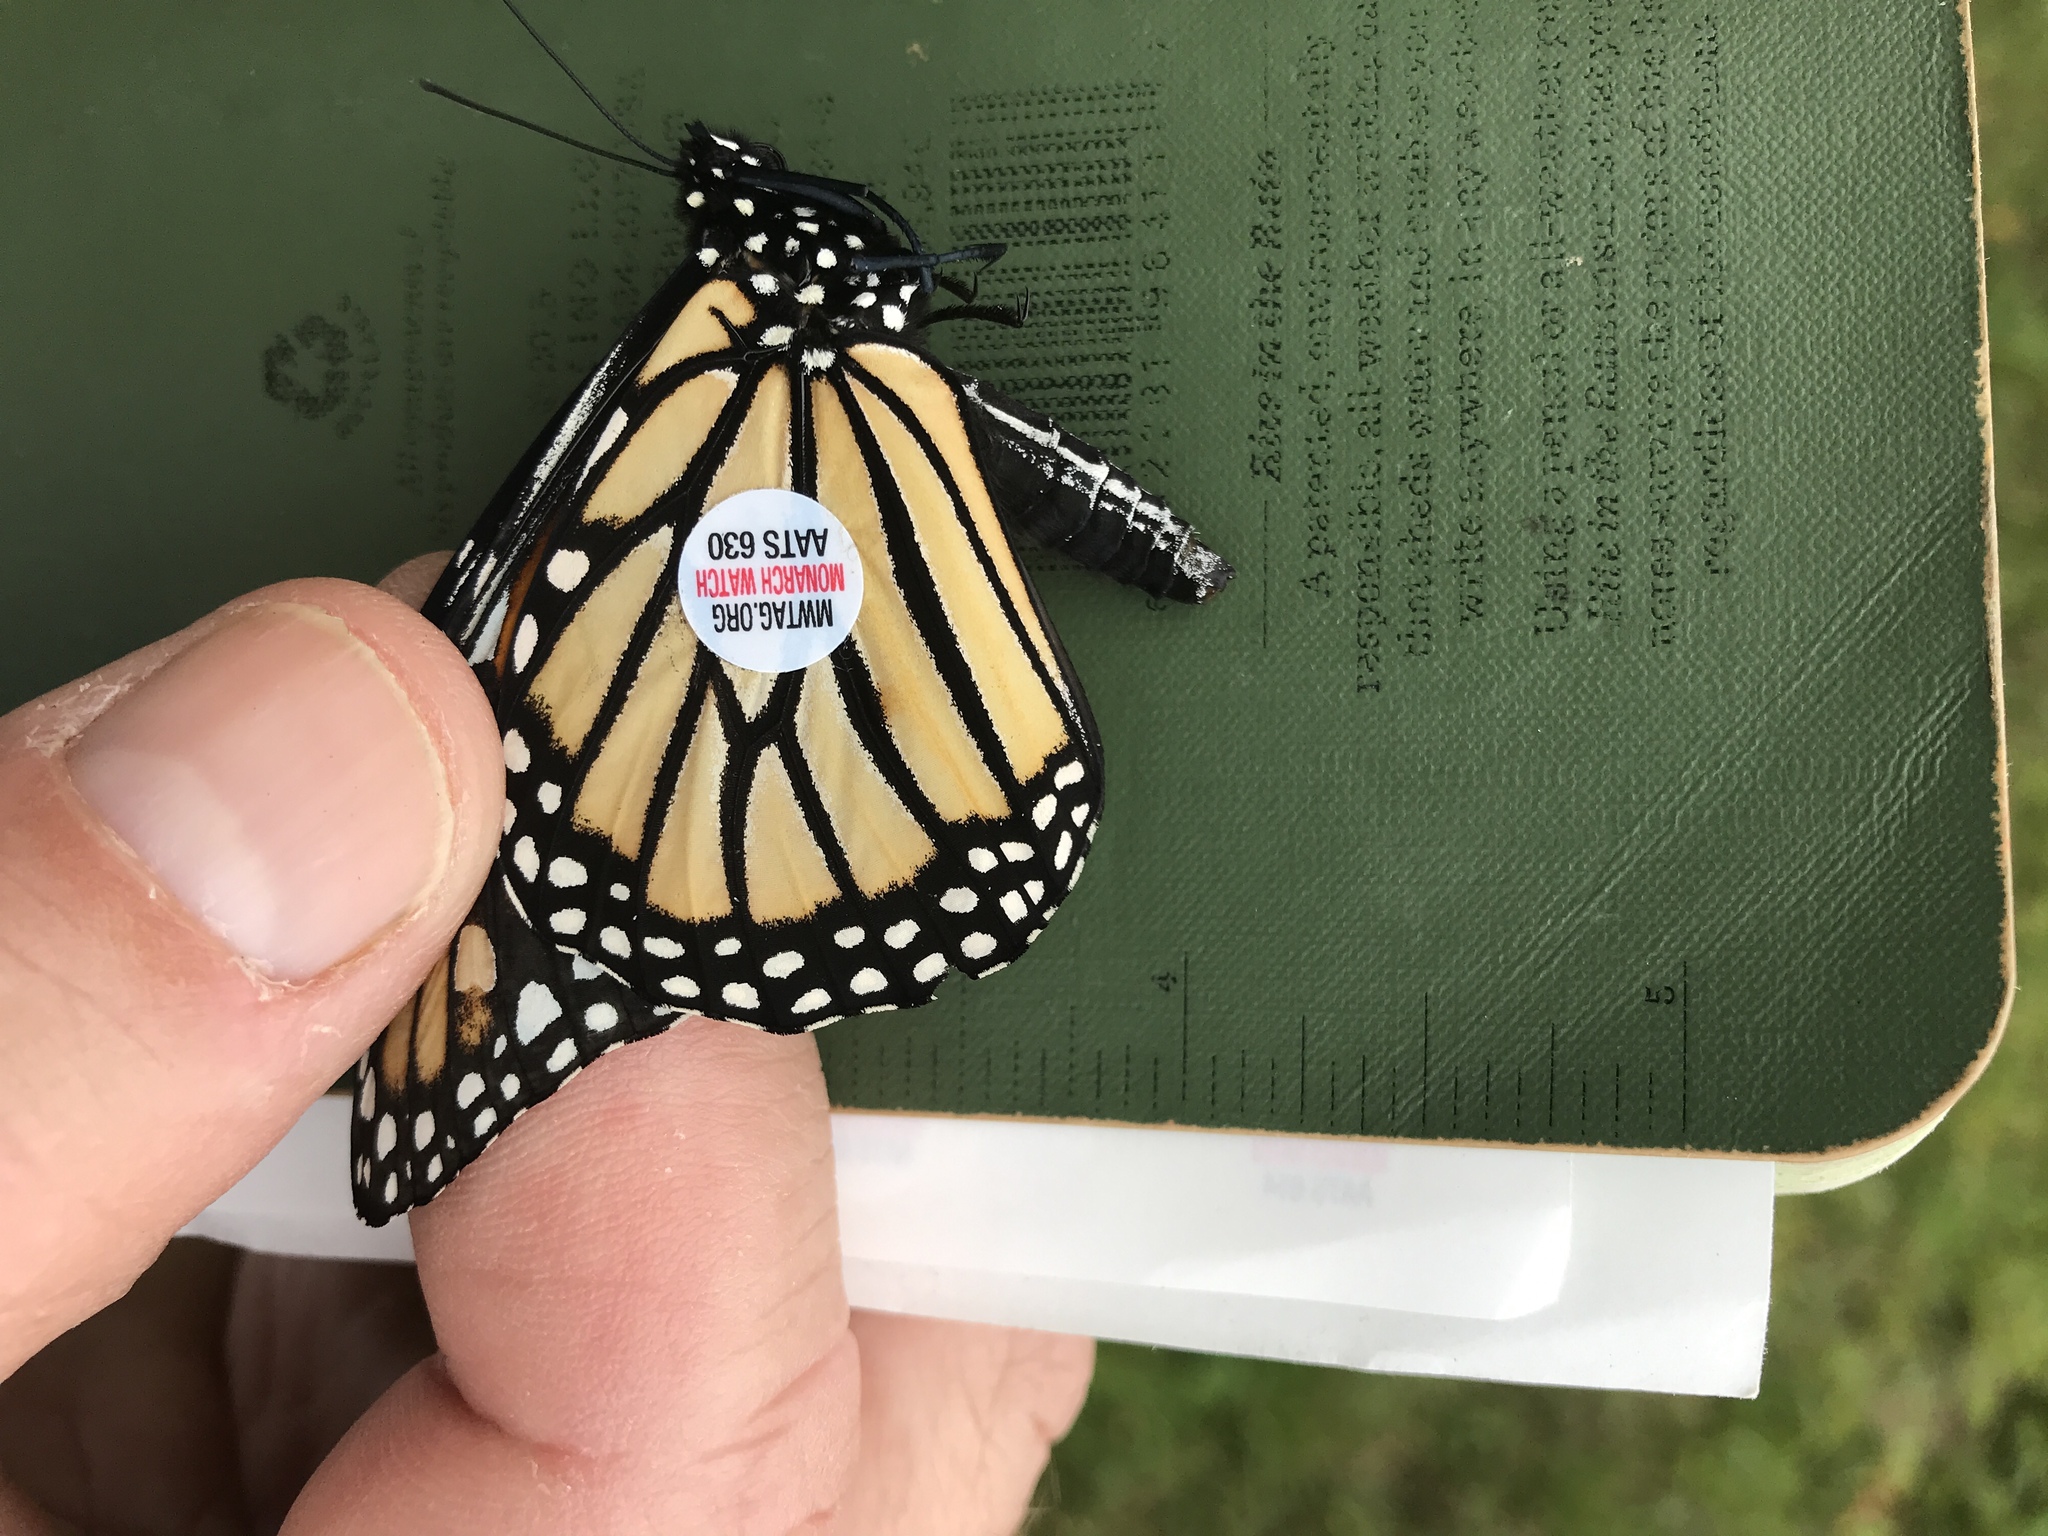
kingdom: Animalia
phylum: Arthropoda
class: Insecta
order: Lepidoptera
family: Nymphalidae
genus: Danaus
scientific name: Danaus plexippus
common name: Monarch
